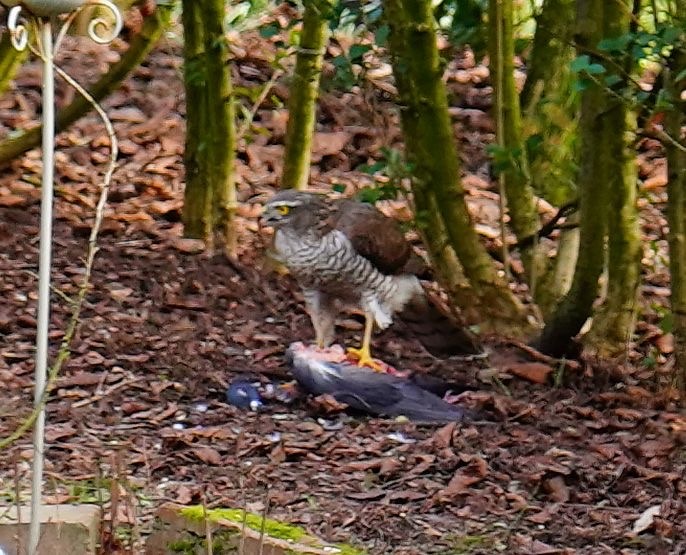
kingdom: Animalia
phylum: Chordata
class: Aves
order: Accipitriformes
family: Accipitridae
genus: Accipiter
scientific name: Accipiter nisus
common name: Eurasian sparrowhawk
